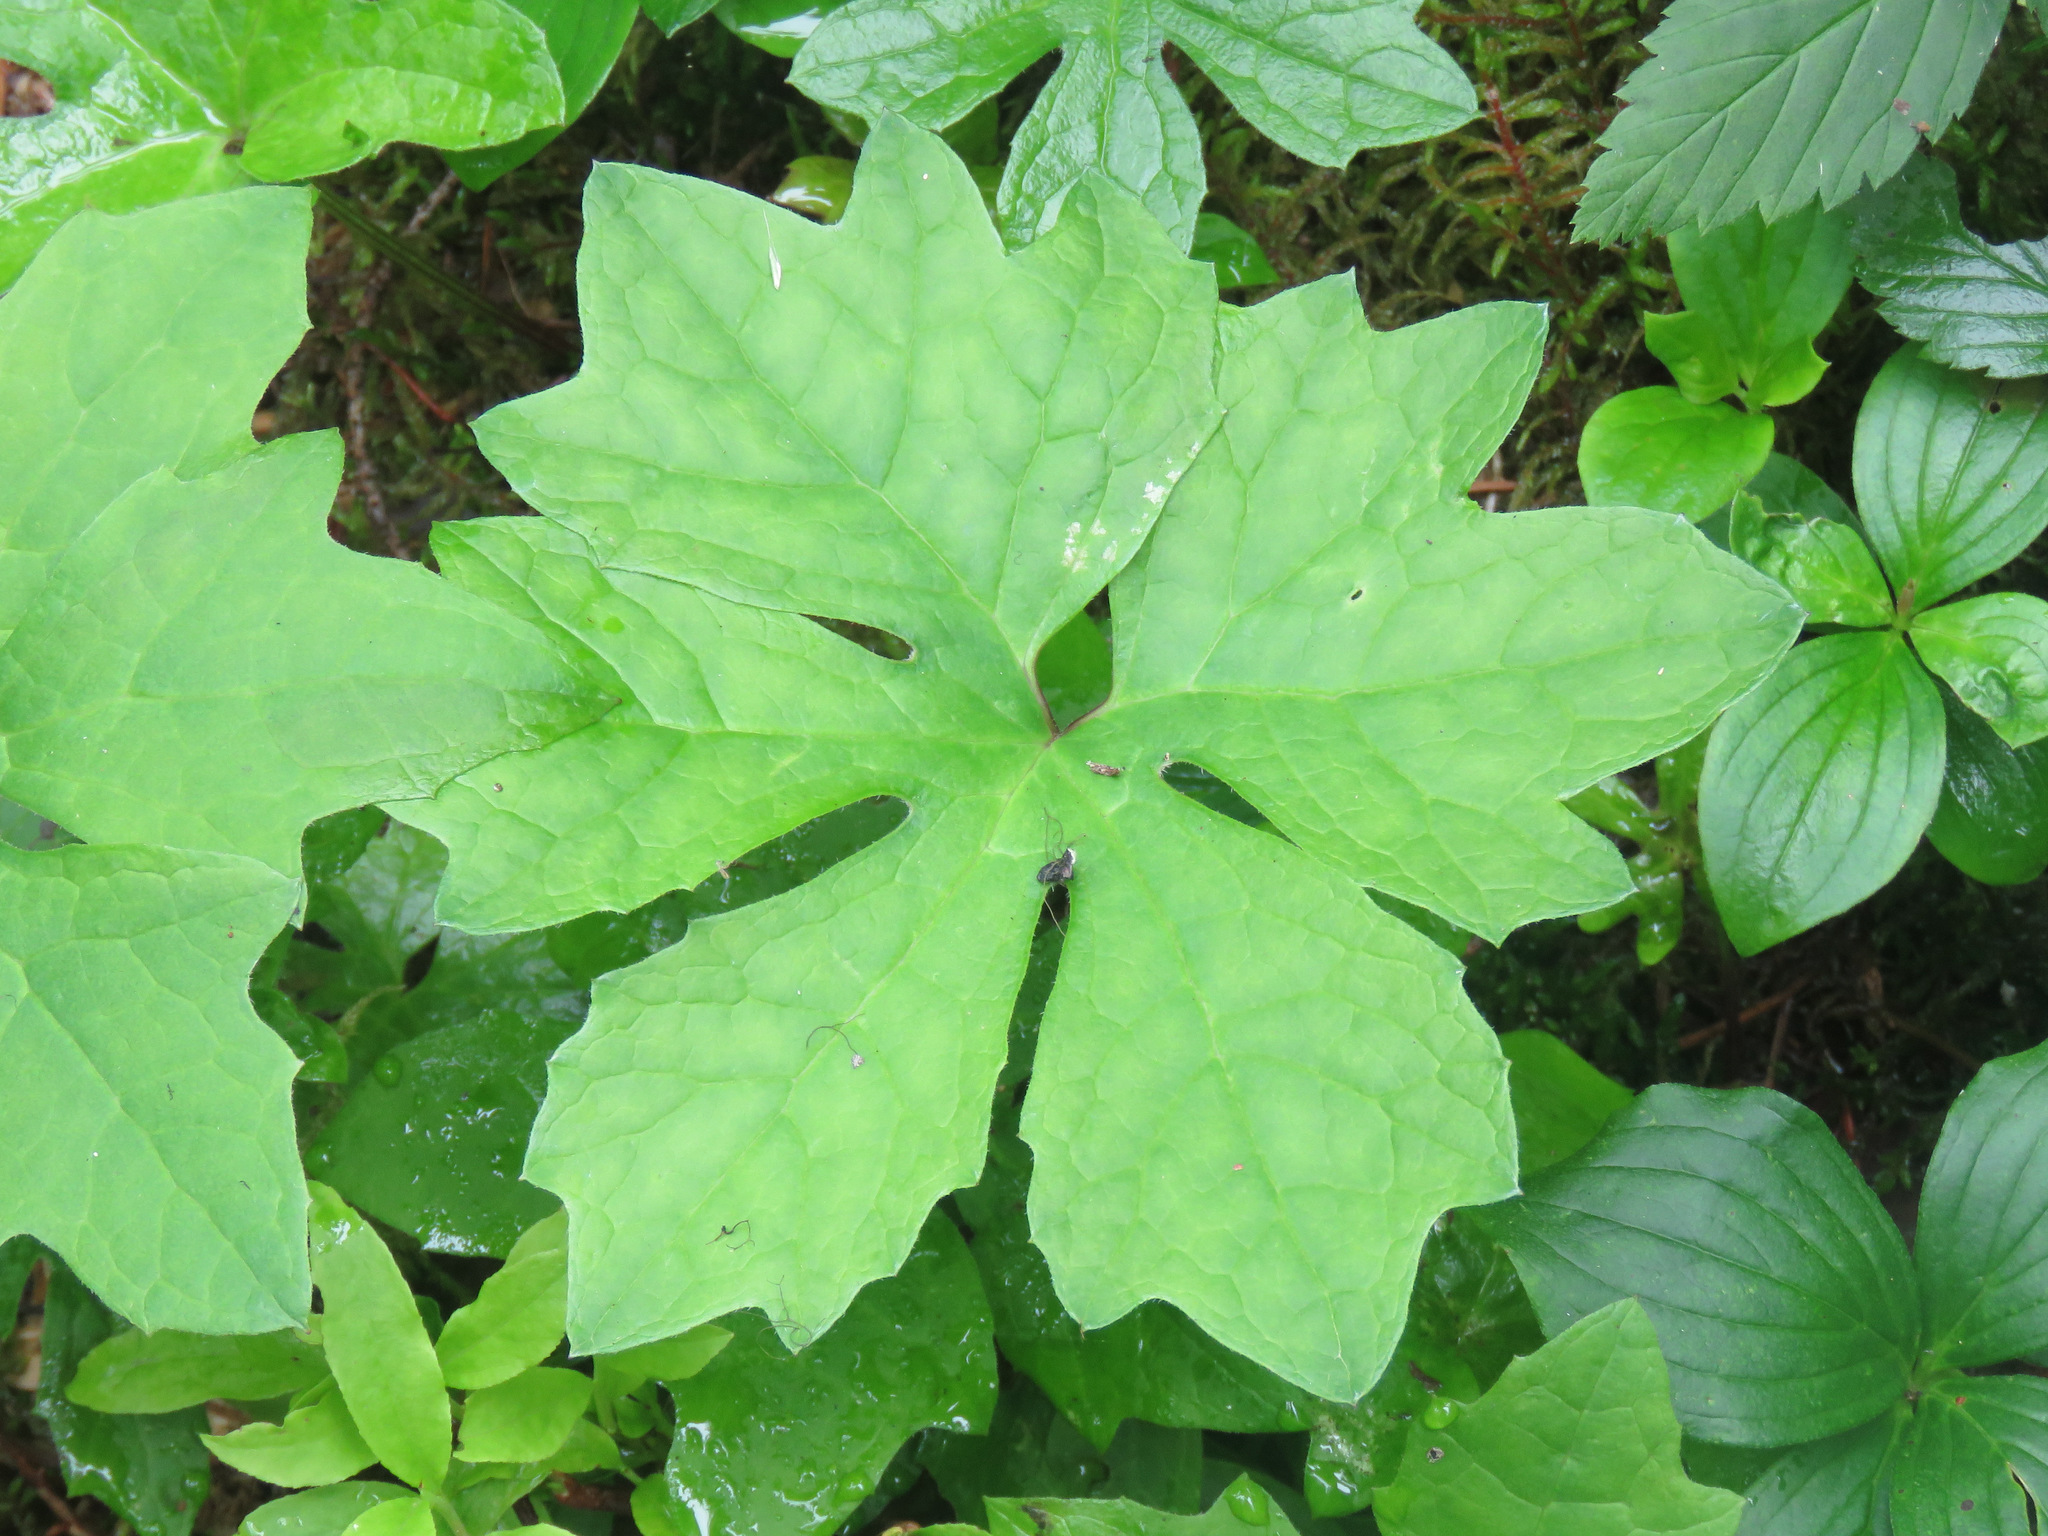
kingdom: Plantae
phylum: Tracheophyta
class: Magnoliopsida
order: Asterales
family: Asteraceae
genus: Petasites
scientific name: Petasites frigidus
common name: Arctic butterbur
